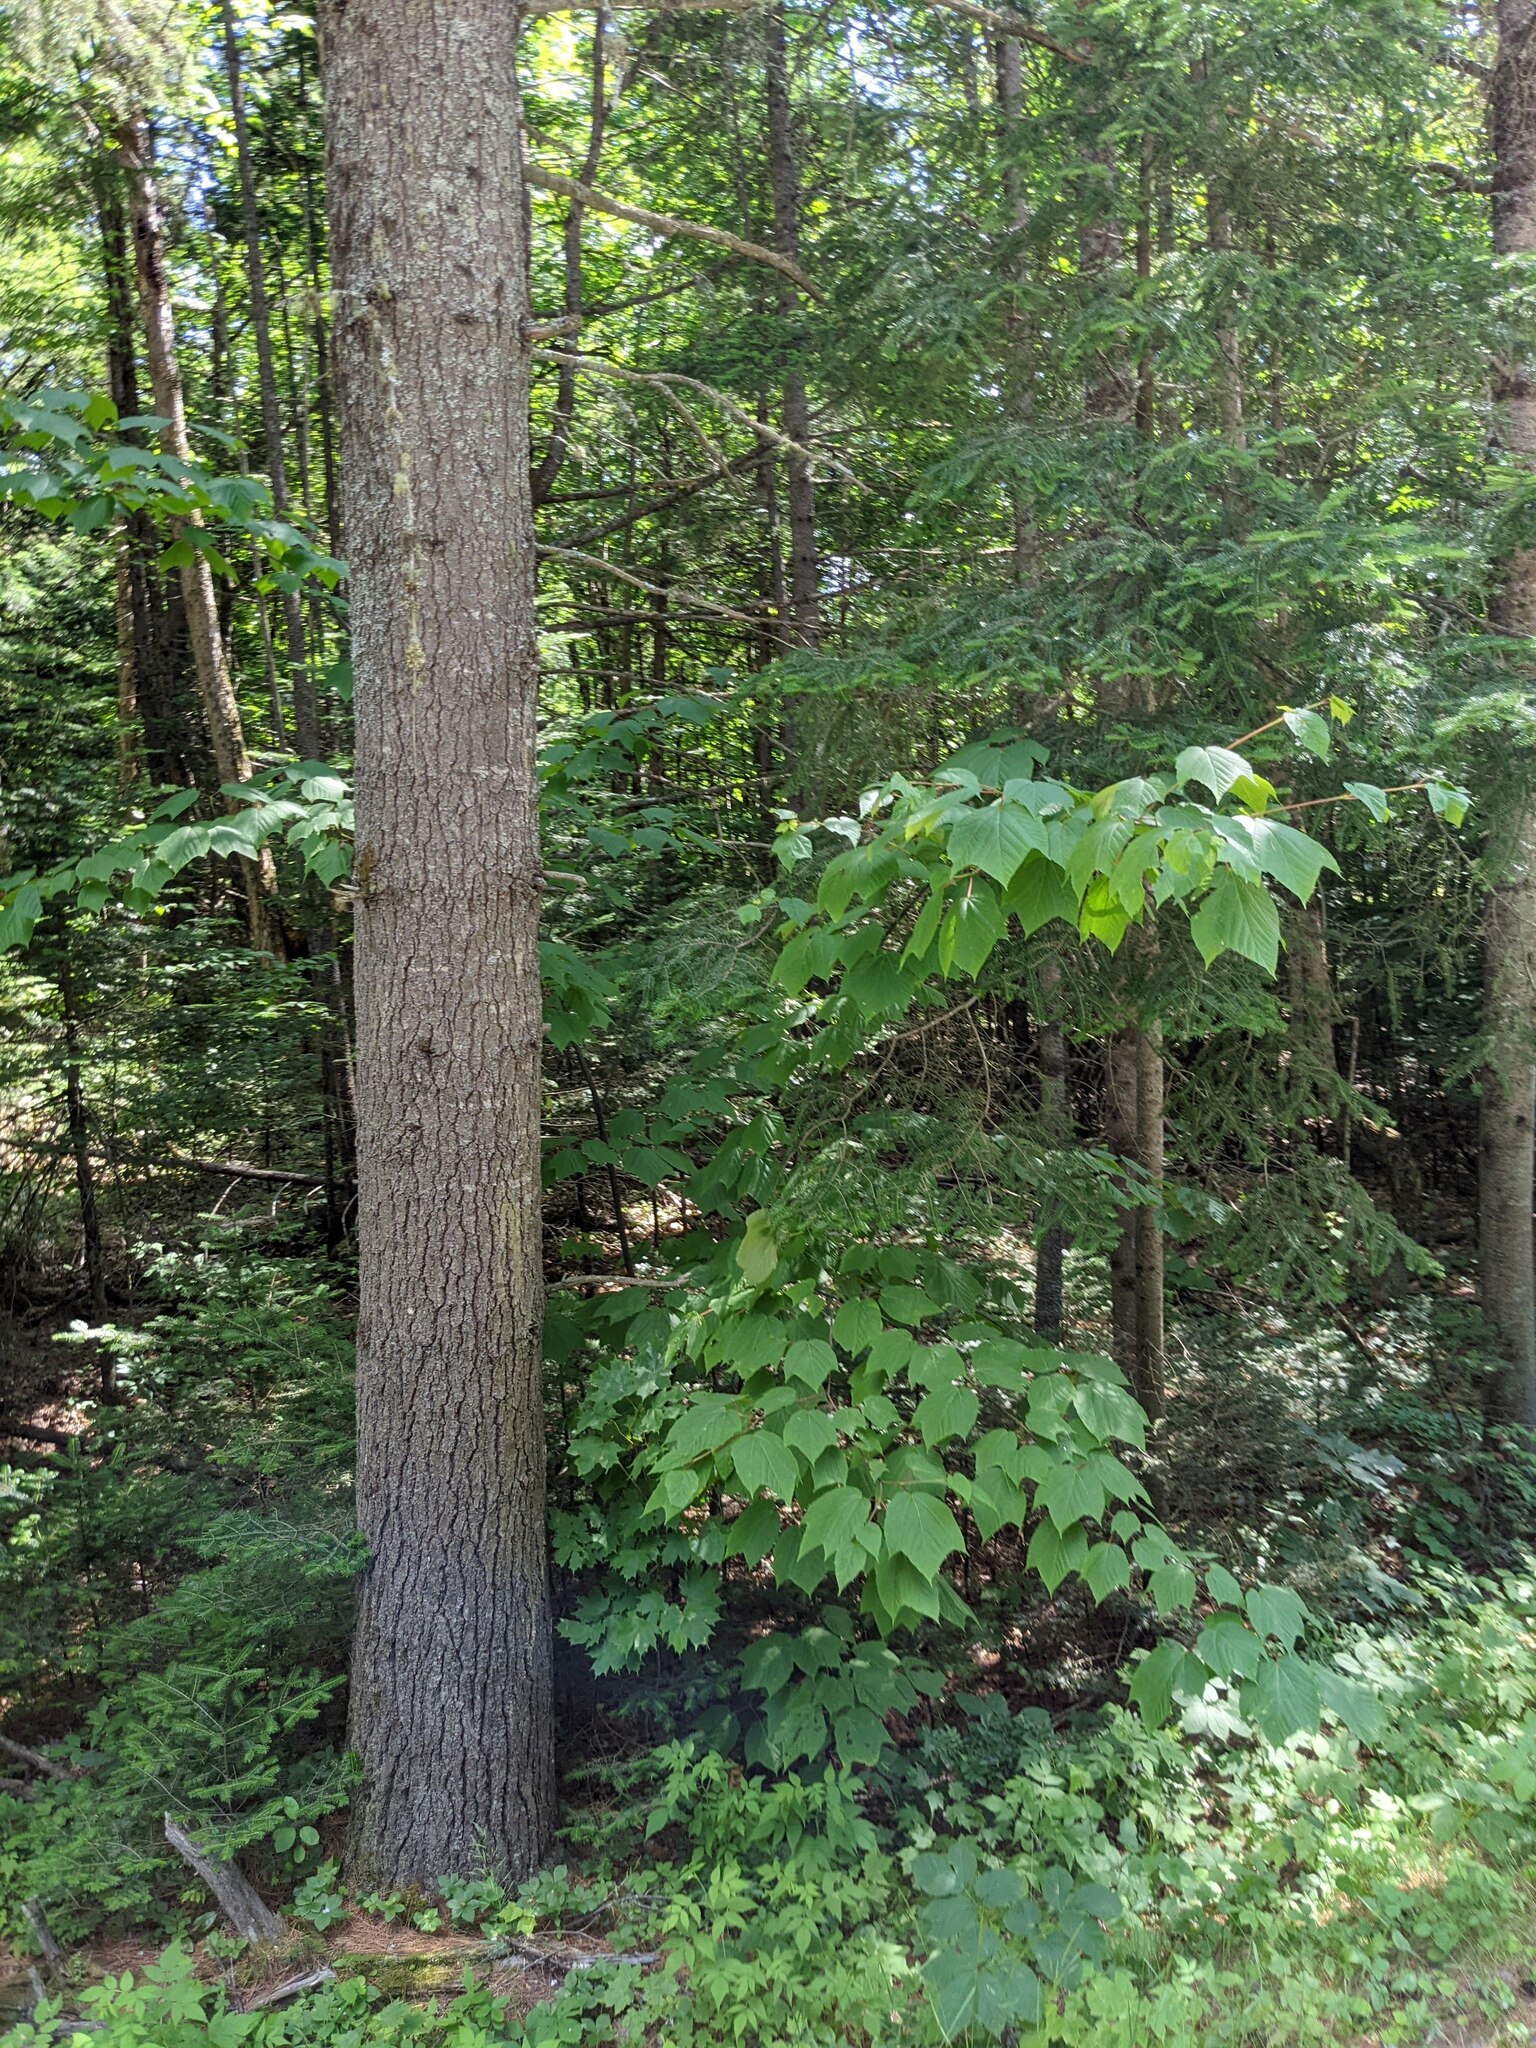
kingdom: Plantae
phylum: Tracheophyta
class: Magnoliopsida
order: Sapindales
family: Sapindaceae
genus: Acer
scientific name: Acer pensylvanicum
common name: Moosewood
